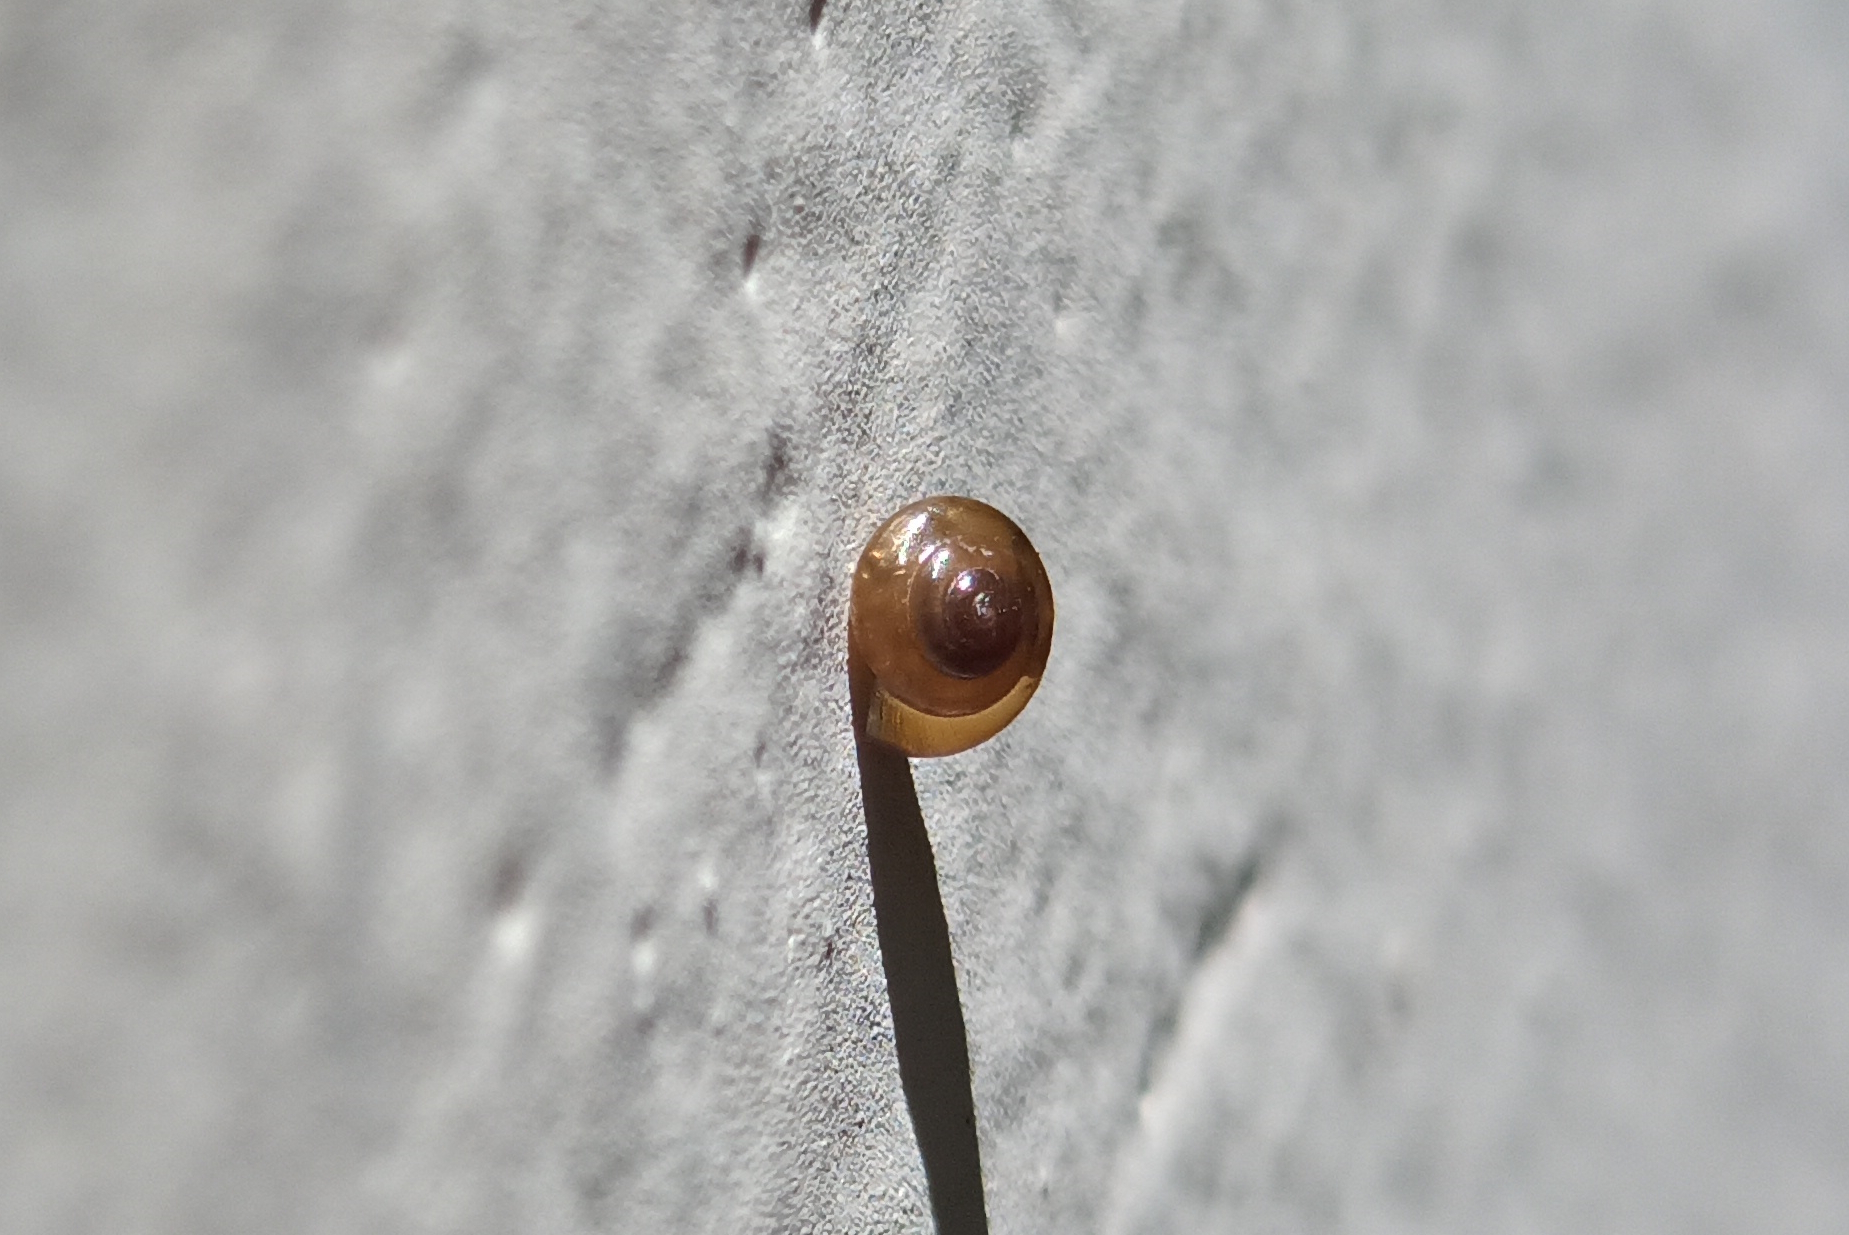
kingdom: Animalia
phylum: Mollusca
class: Gastropoda
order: Stylommatophora
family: Euconulidae
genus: Habroconus
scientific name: Habroconus semenlini
